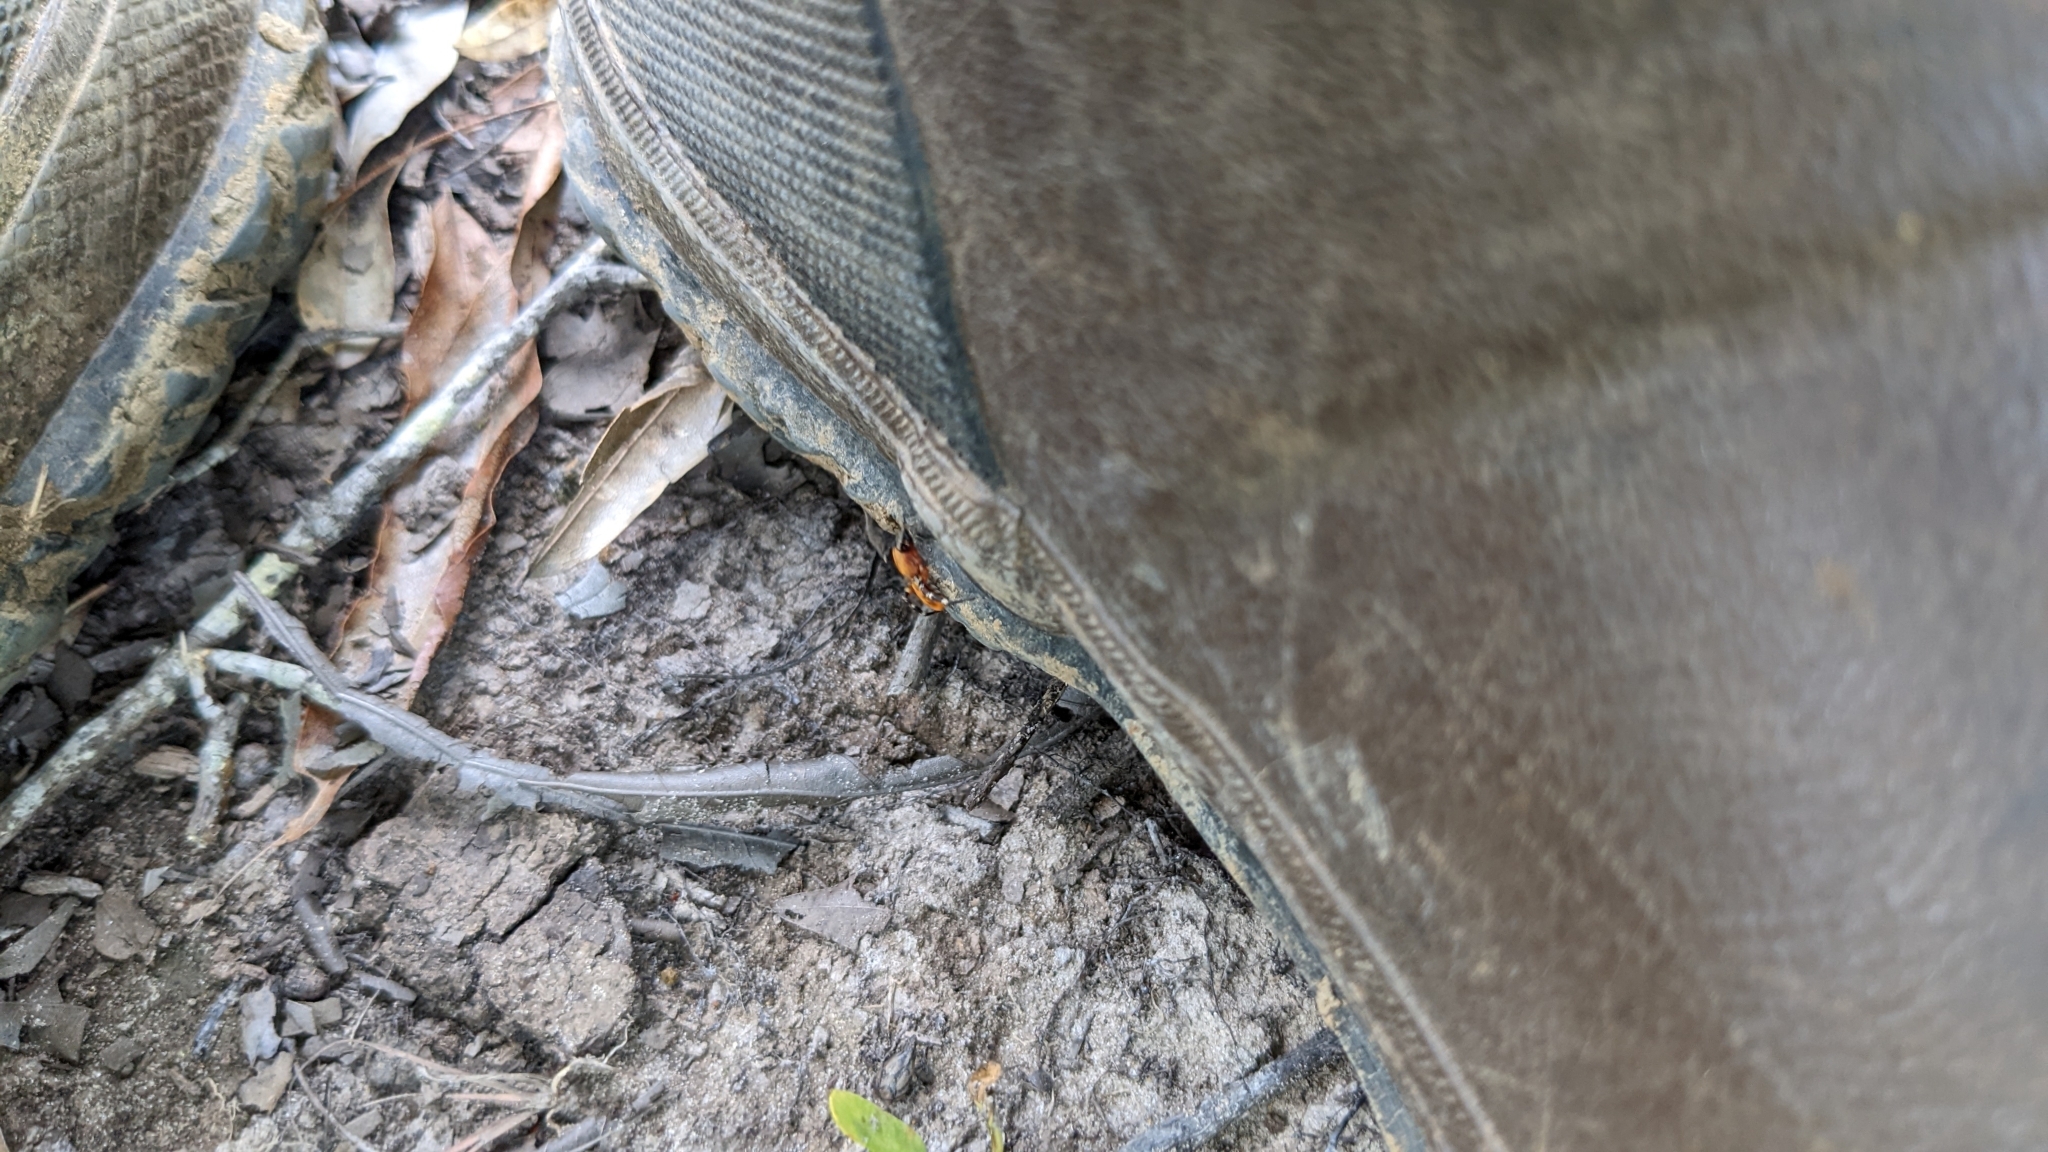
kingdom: Animalia
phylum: Arthropoda
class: Arachnida
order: Araneae
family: Corinnidae
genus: Castianeira
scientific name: Castianeira amoena
